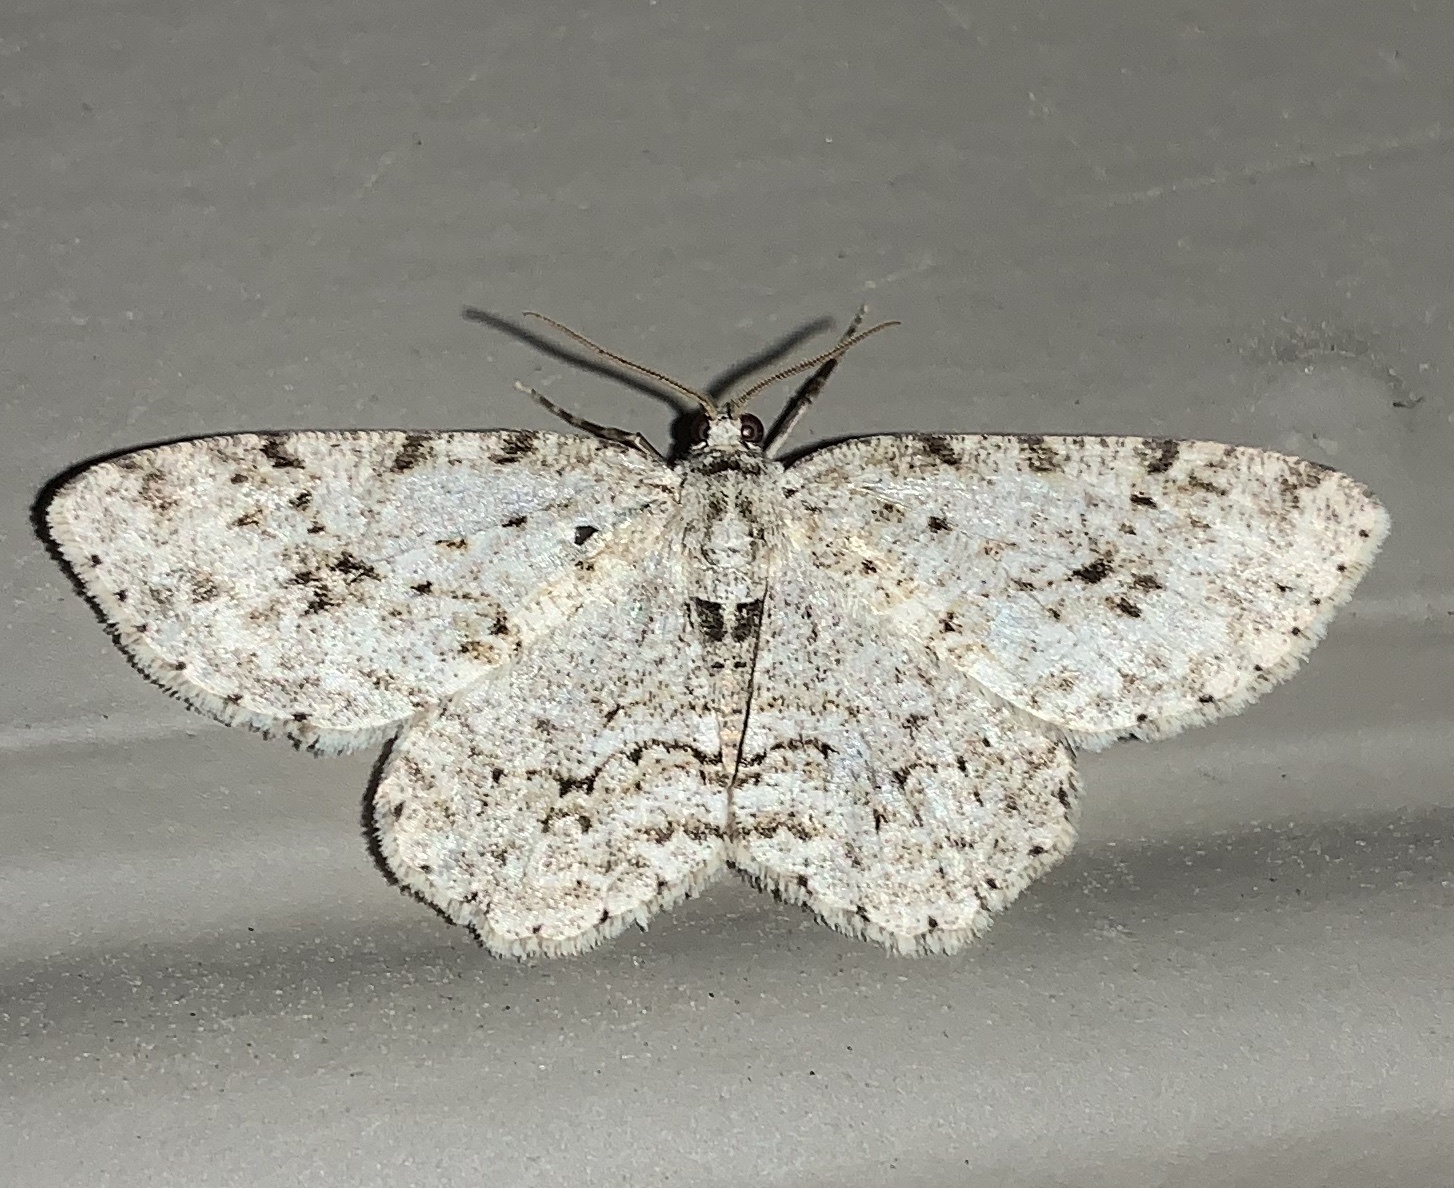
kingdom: Animalia
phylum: Arthropoda
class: Insecta
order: Lepidoptera
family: Geometridae
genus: Ectropis
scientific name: Ectropis crepuscularia
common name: Engrailed
